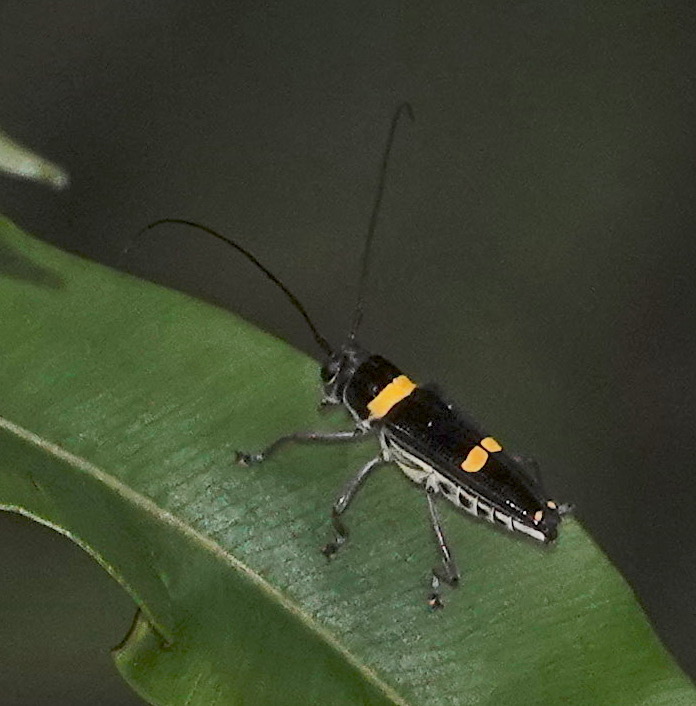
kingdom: Animalia
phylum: Arthropoda
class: Insecta
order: Coleoptera
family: Cerambycidae
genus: Glenea
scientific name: Glenea funerula
